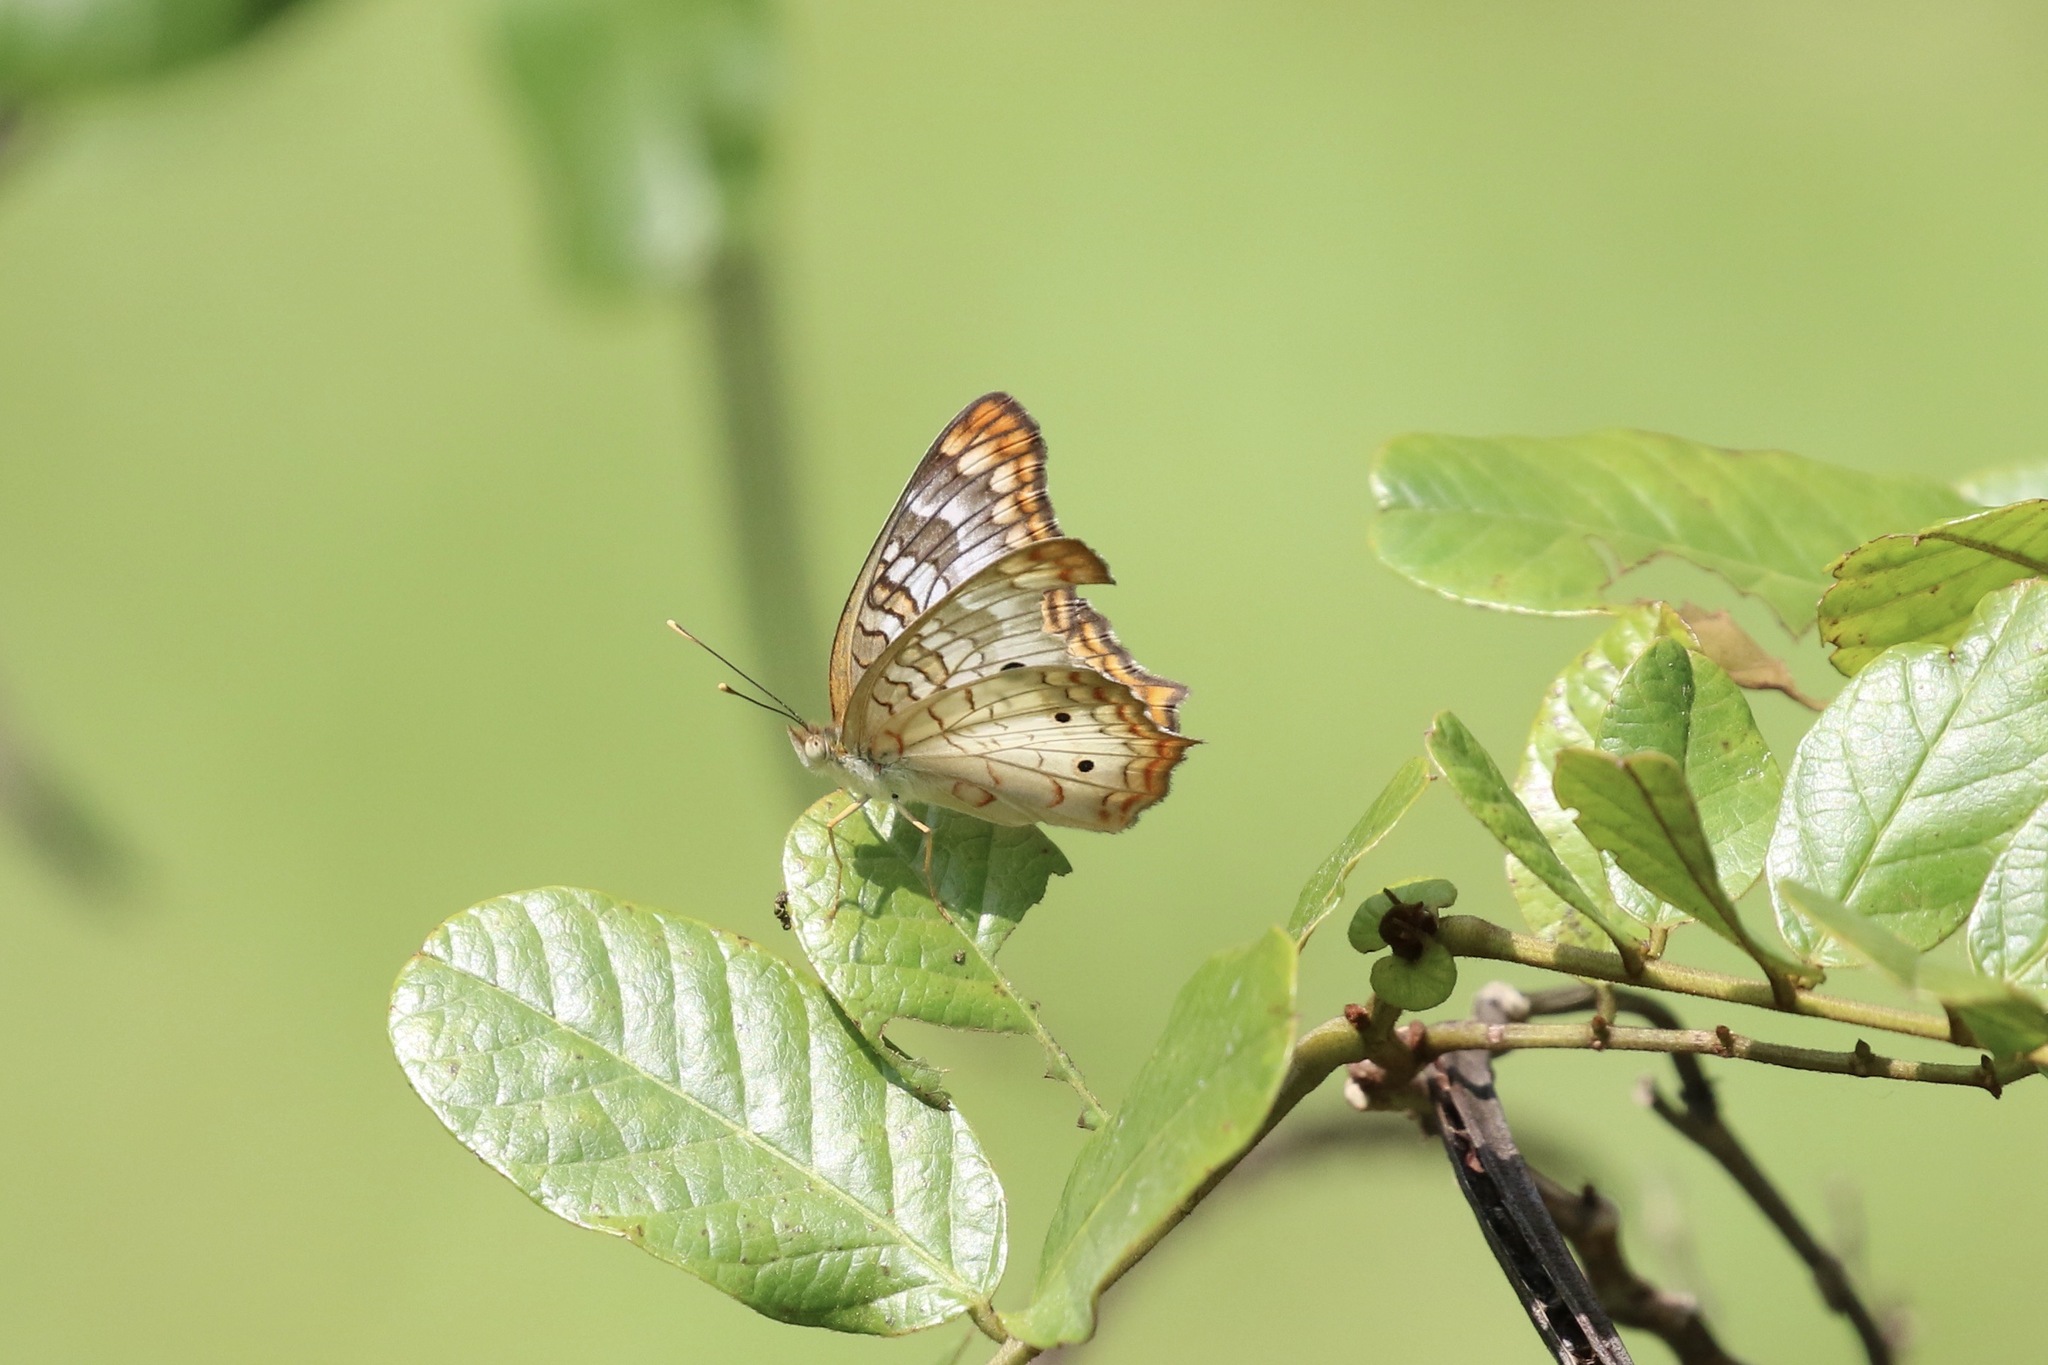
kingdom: Animalia
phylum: Arthropoda
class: Insecta
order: Lepidoptera
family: Nymphalidae
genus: Anartia
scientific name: Anartia jatrophae
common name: White peacock
